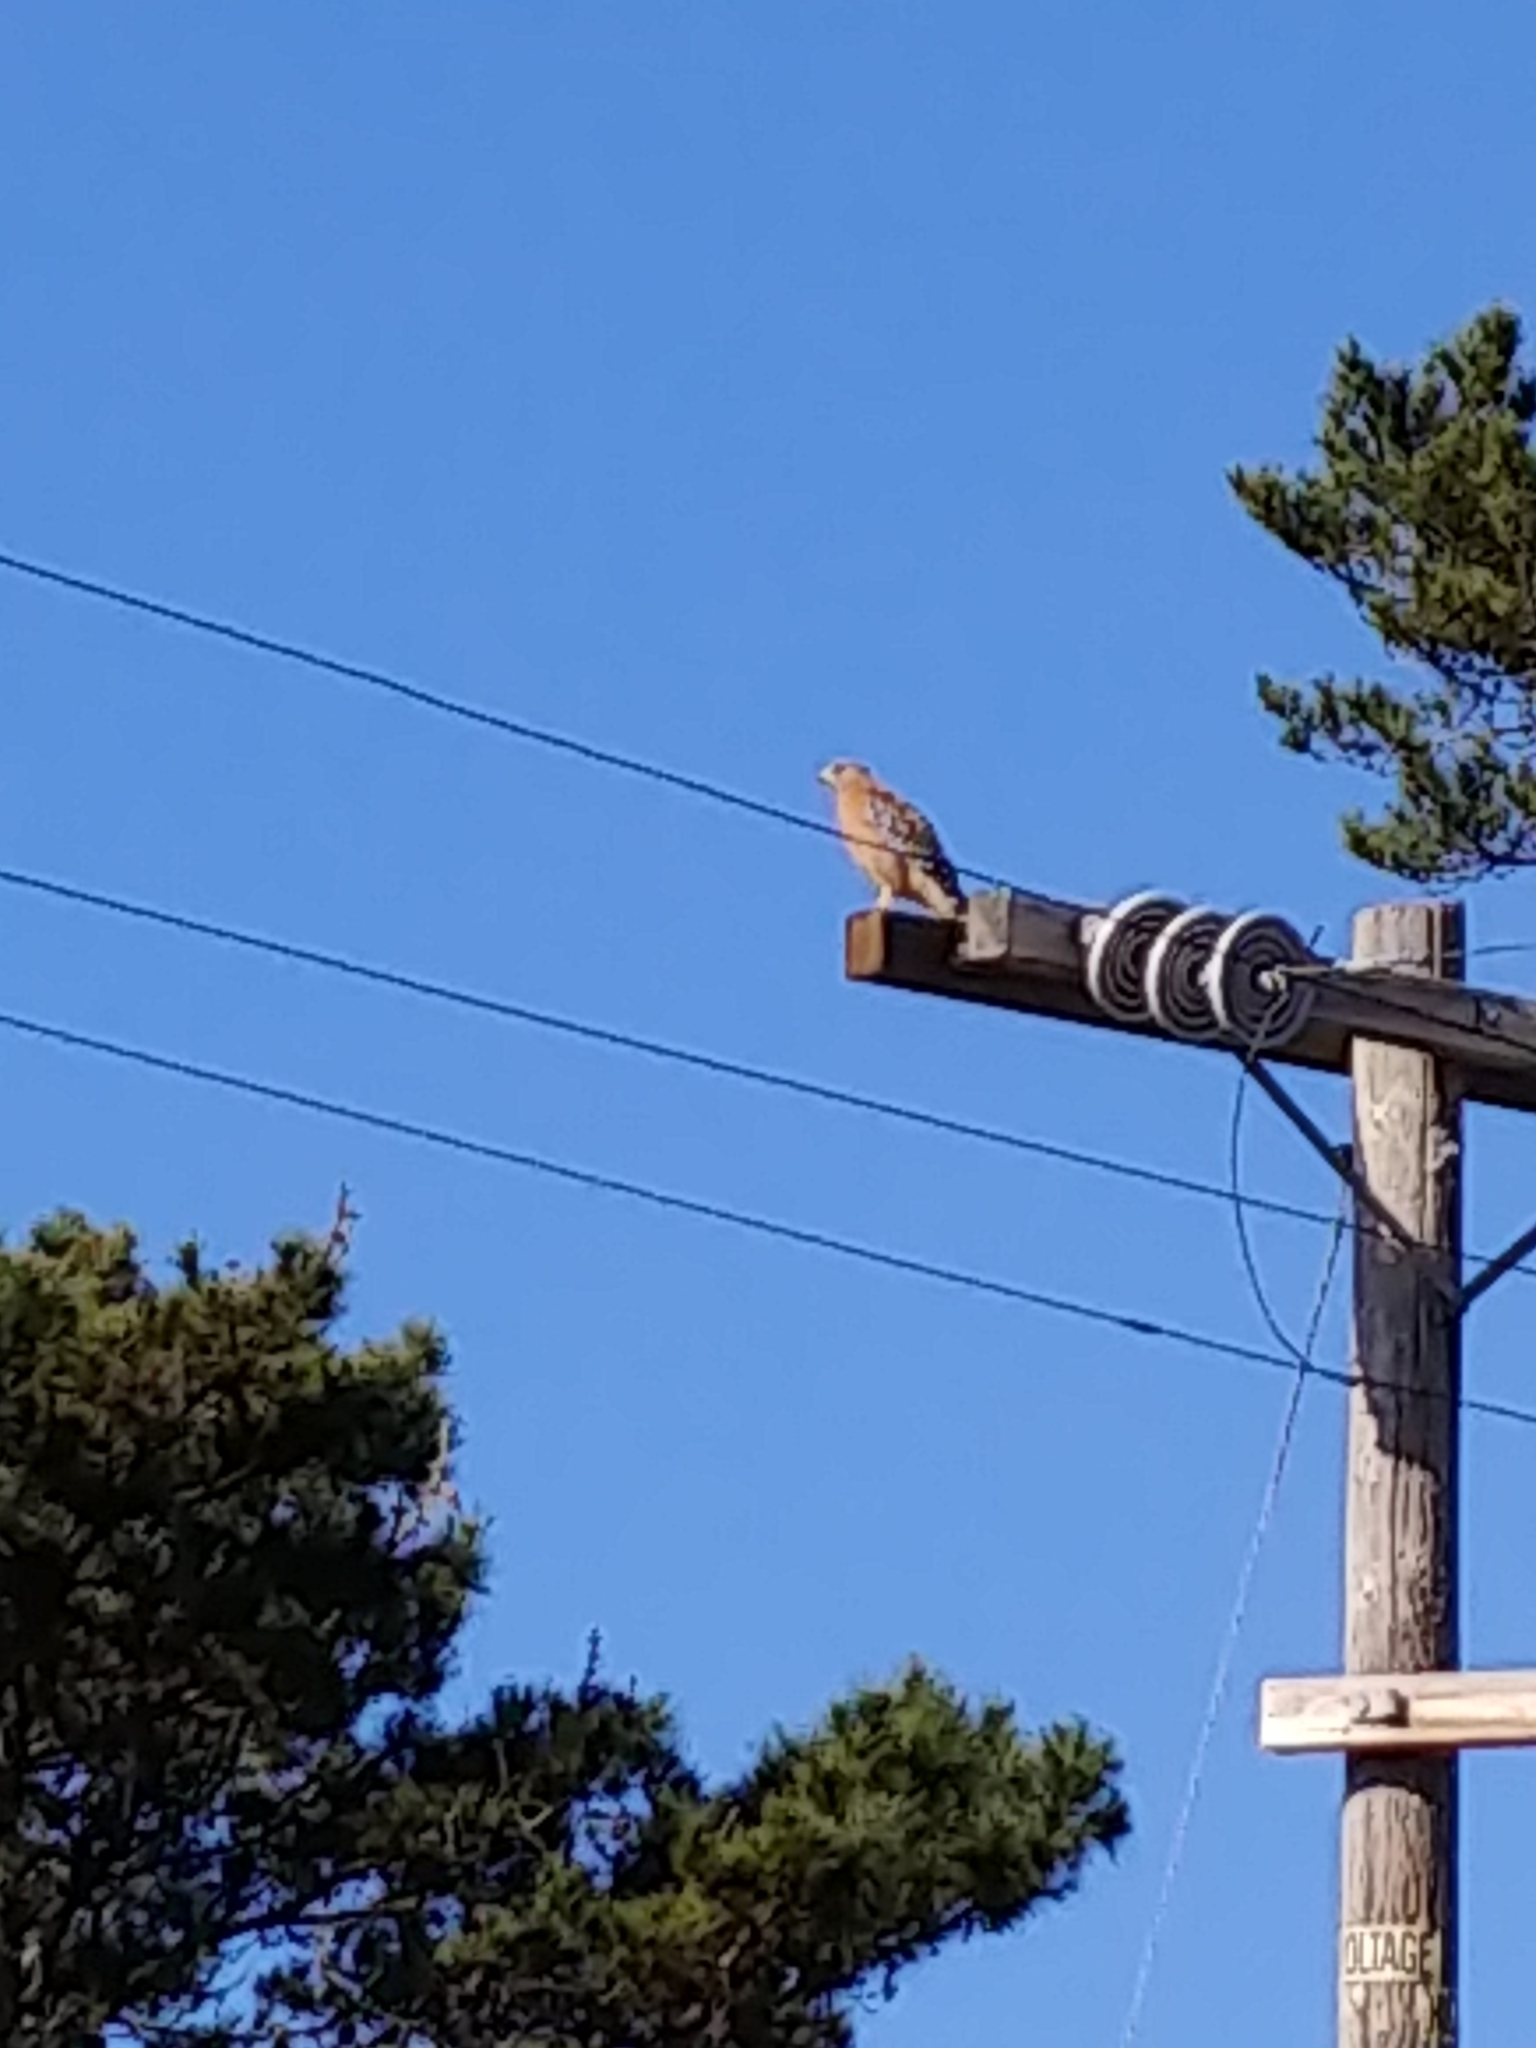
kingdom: Animalia
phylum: Chordata
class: Aves
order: Accipitriformes
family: Accipitridae
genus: Buteo
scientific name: Buteo lineatus
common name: Red-shouldered hawk
